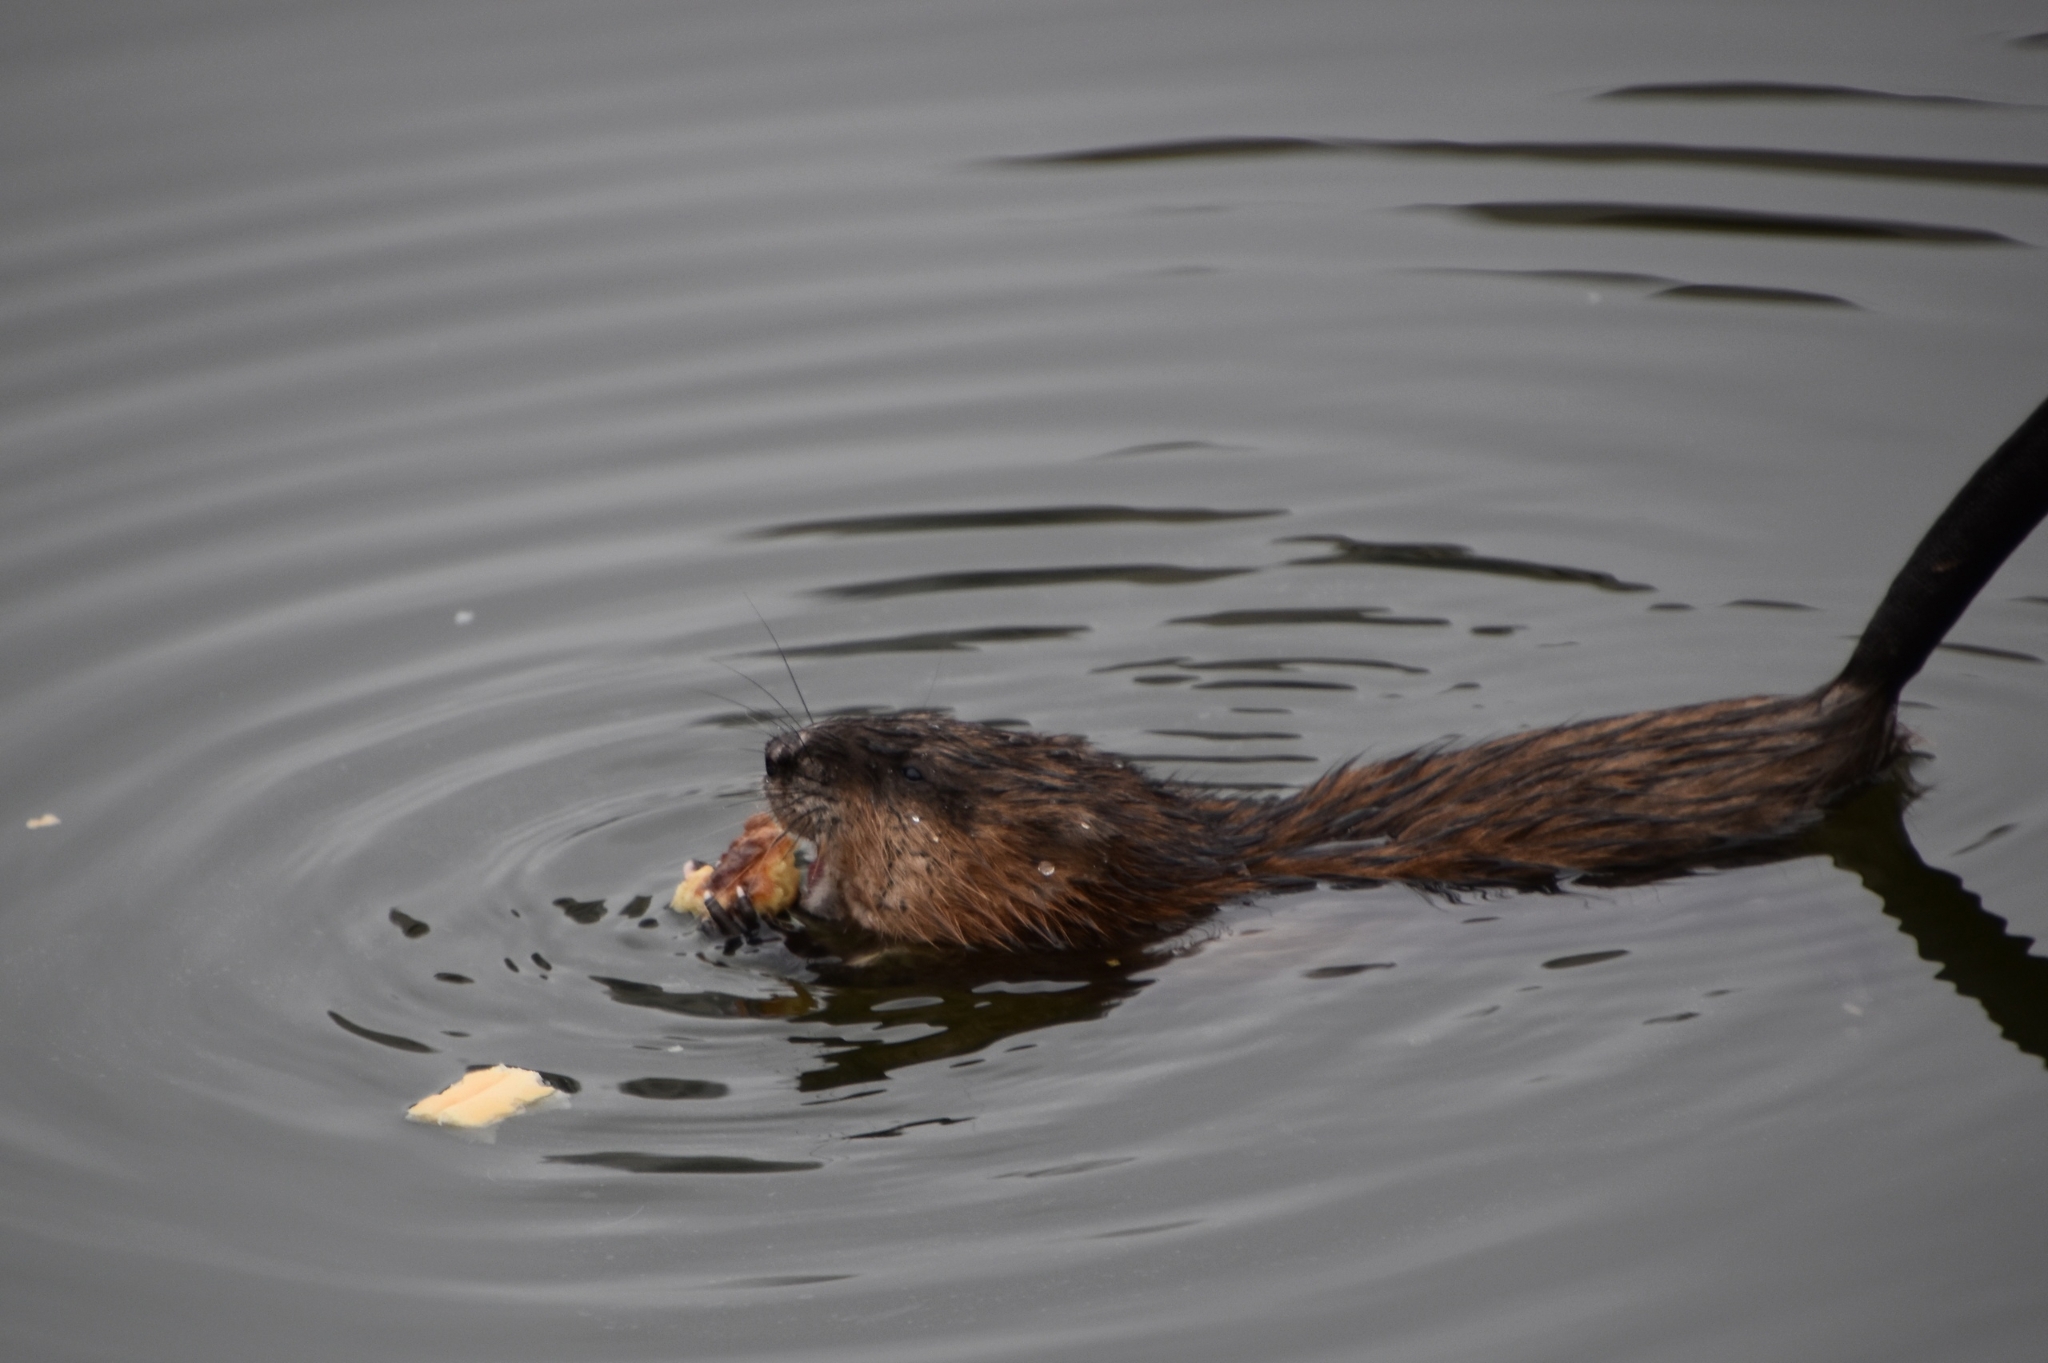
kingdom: Animalia
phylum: Chordata
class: Mammalia
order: Rodentia
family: Cricetidae
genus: Ondatra
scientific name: Ondatra zibethicus
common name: Muskrat
